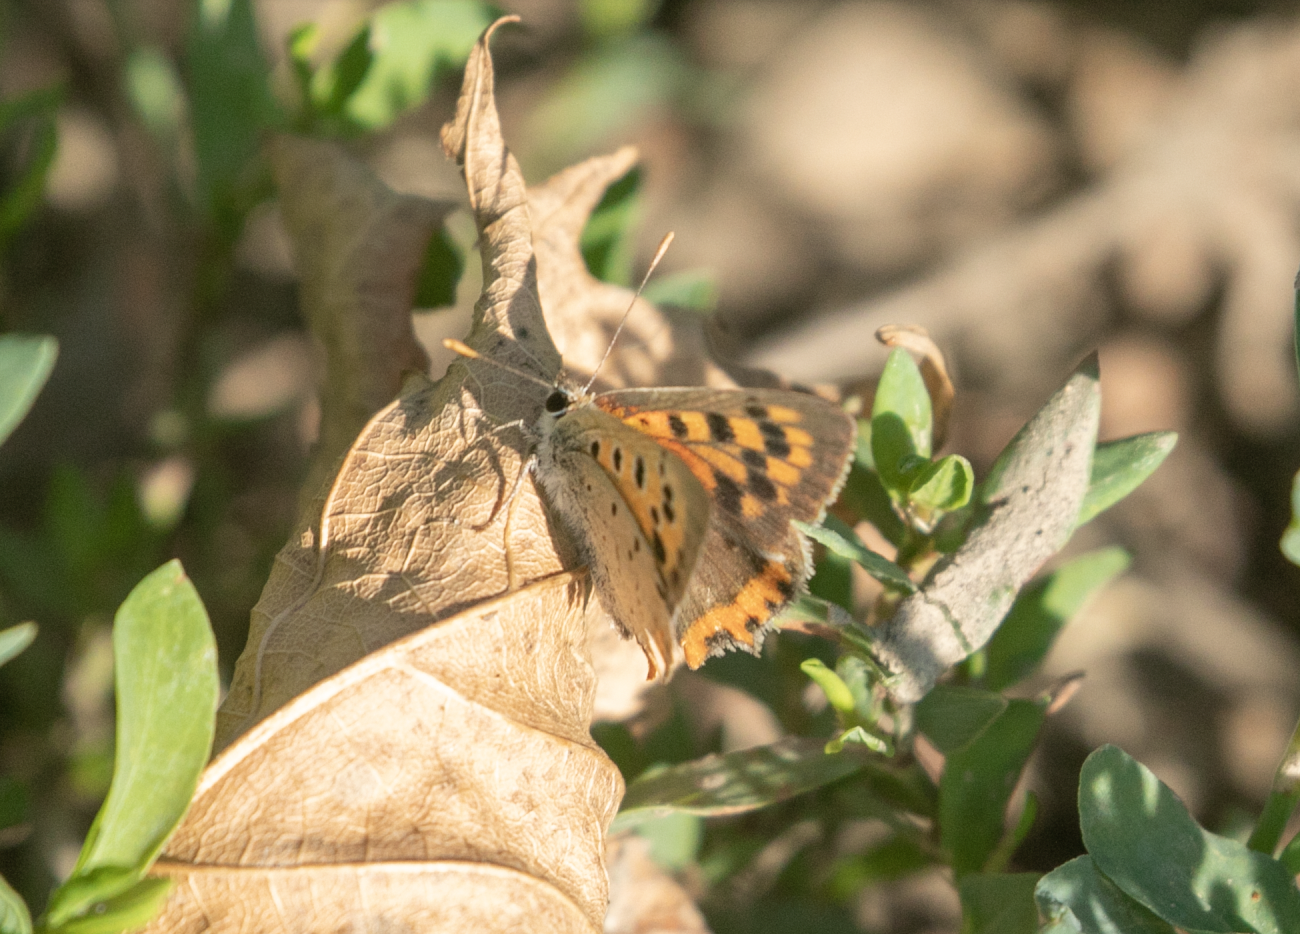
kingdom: Animalia
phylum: Arthropoda
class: Insecta
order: Lepidoptera
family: Lycaenidae
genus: Lycaena
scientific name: Lycaena phlaeas
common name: Small copper
